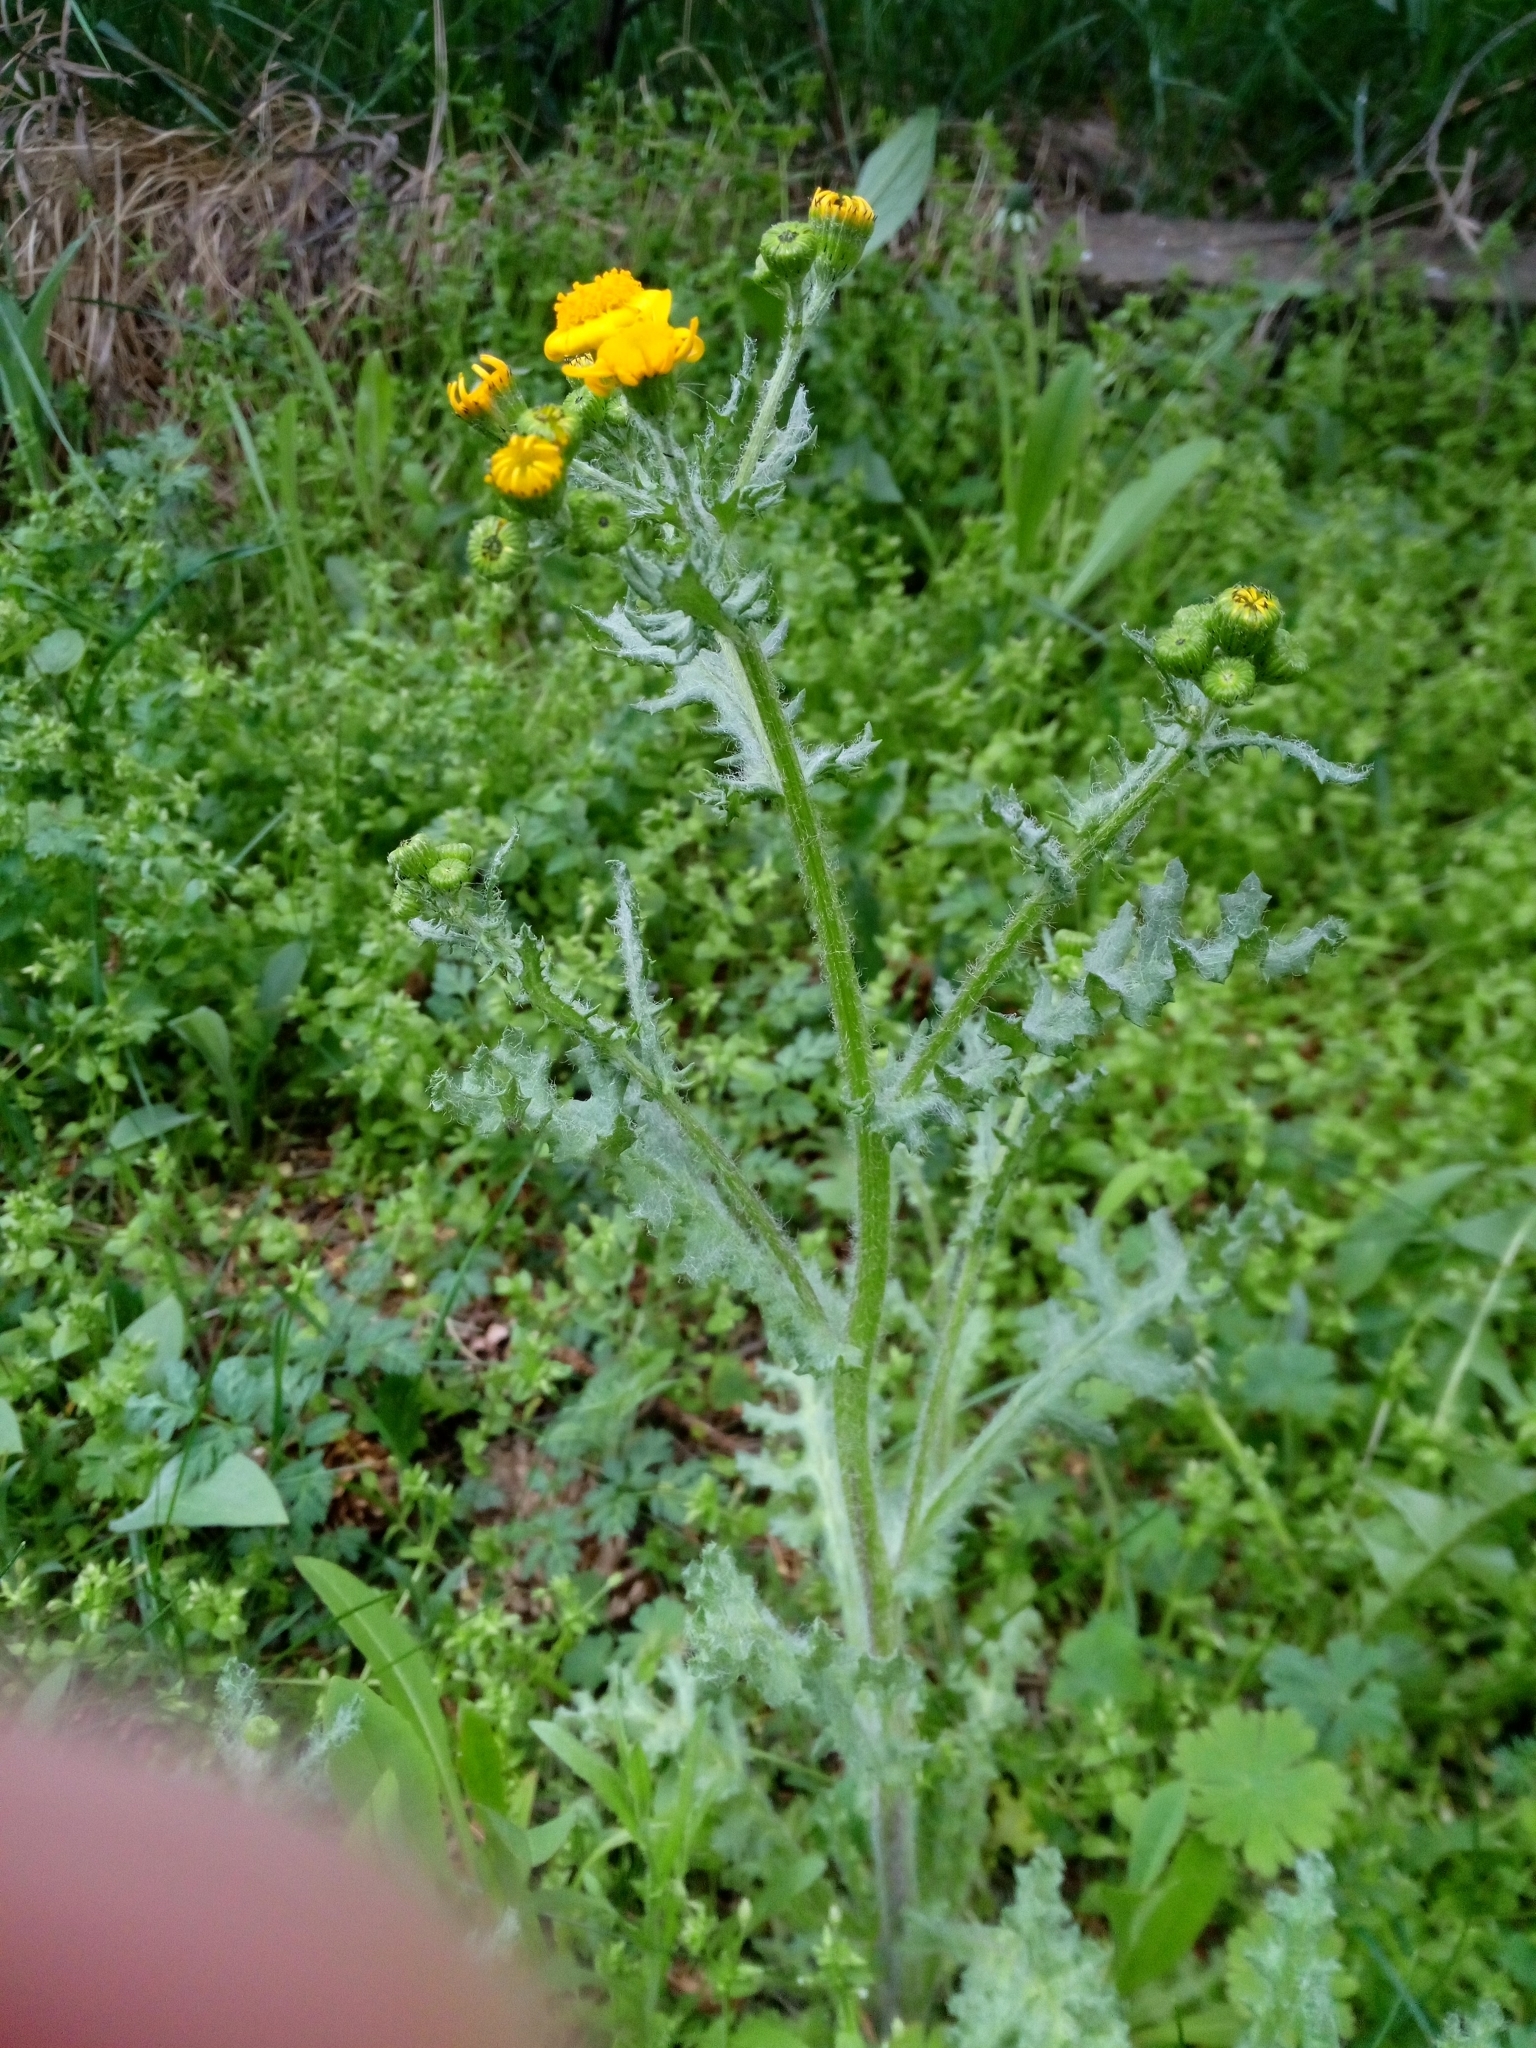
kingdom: Plantae
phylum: Tracheophyta
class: Magnoliopsida
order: Asterales
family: Asteraceae
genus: Senecio
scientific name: Senecio vernalis
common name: Eastern groundsel
